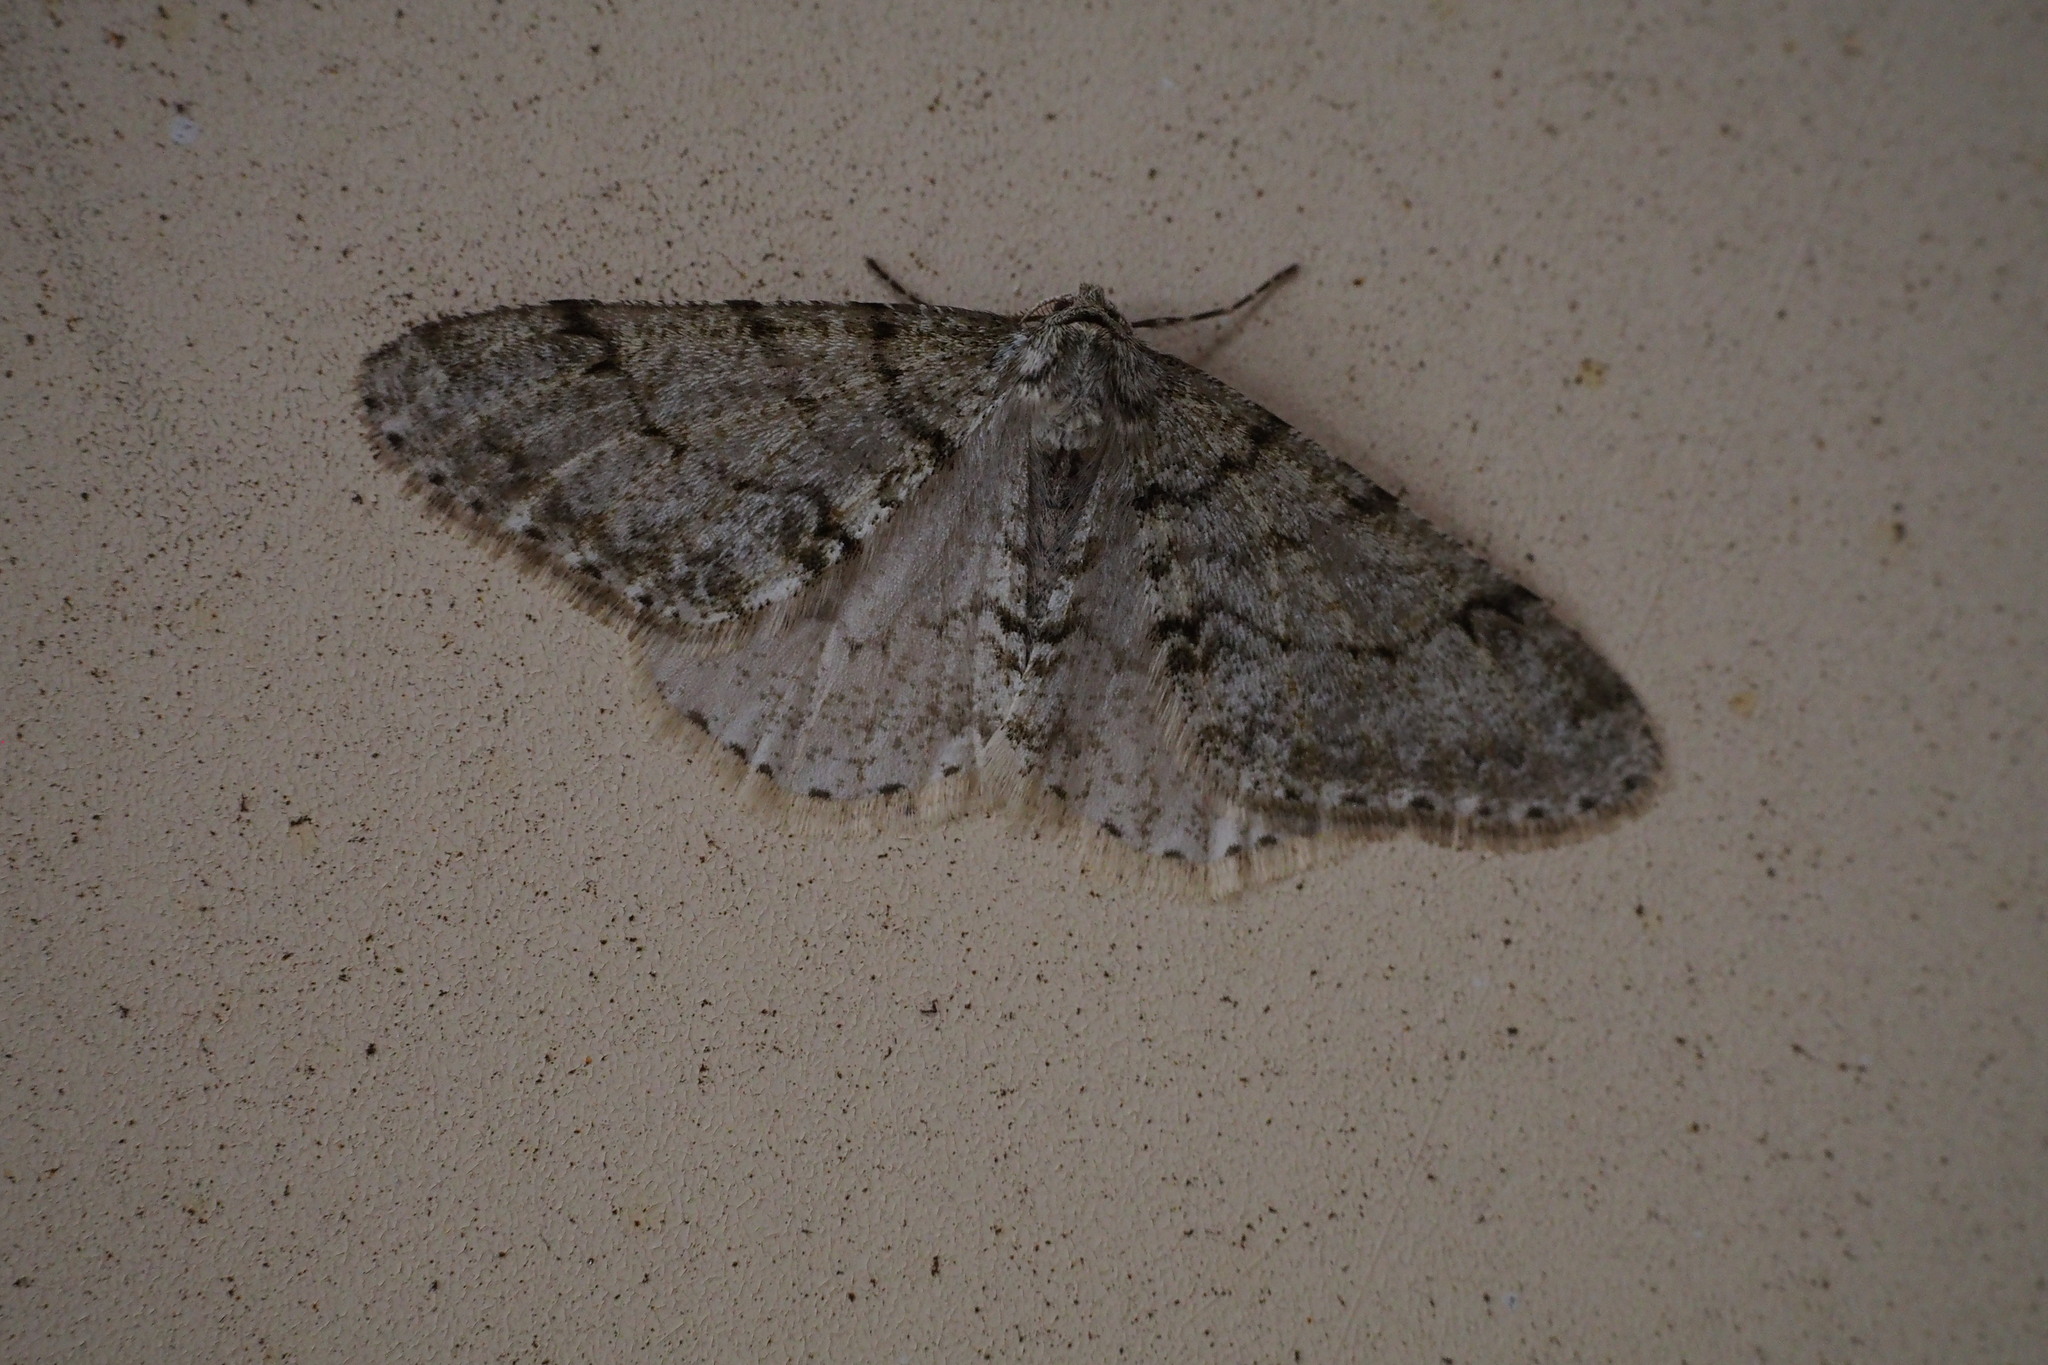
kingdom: Animalia
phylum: Arthropoda
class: Insecta
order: Lepidoptera
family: Geometridae
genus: Phigalia
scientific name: Phigalia verecundaria
